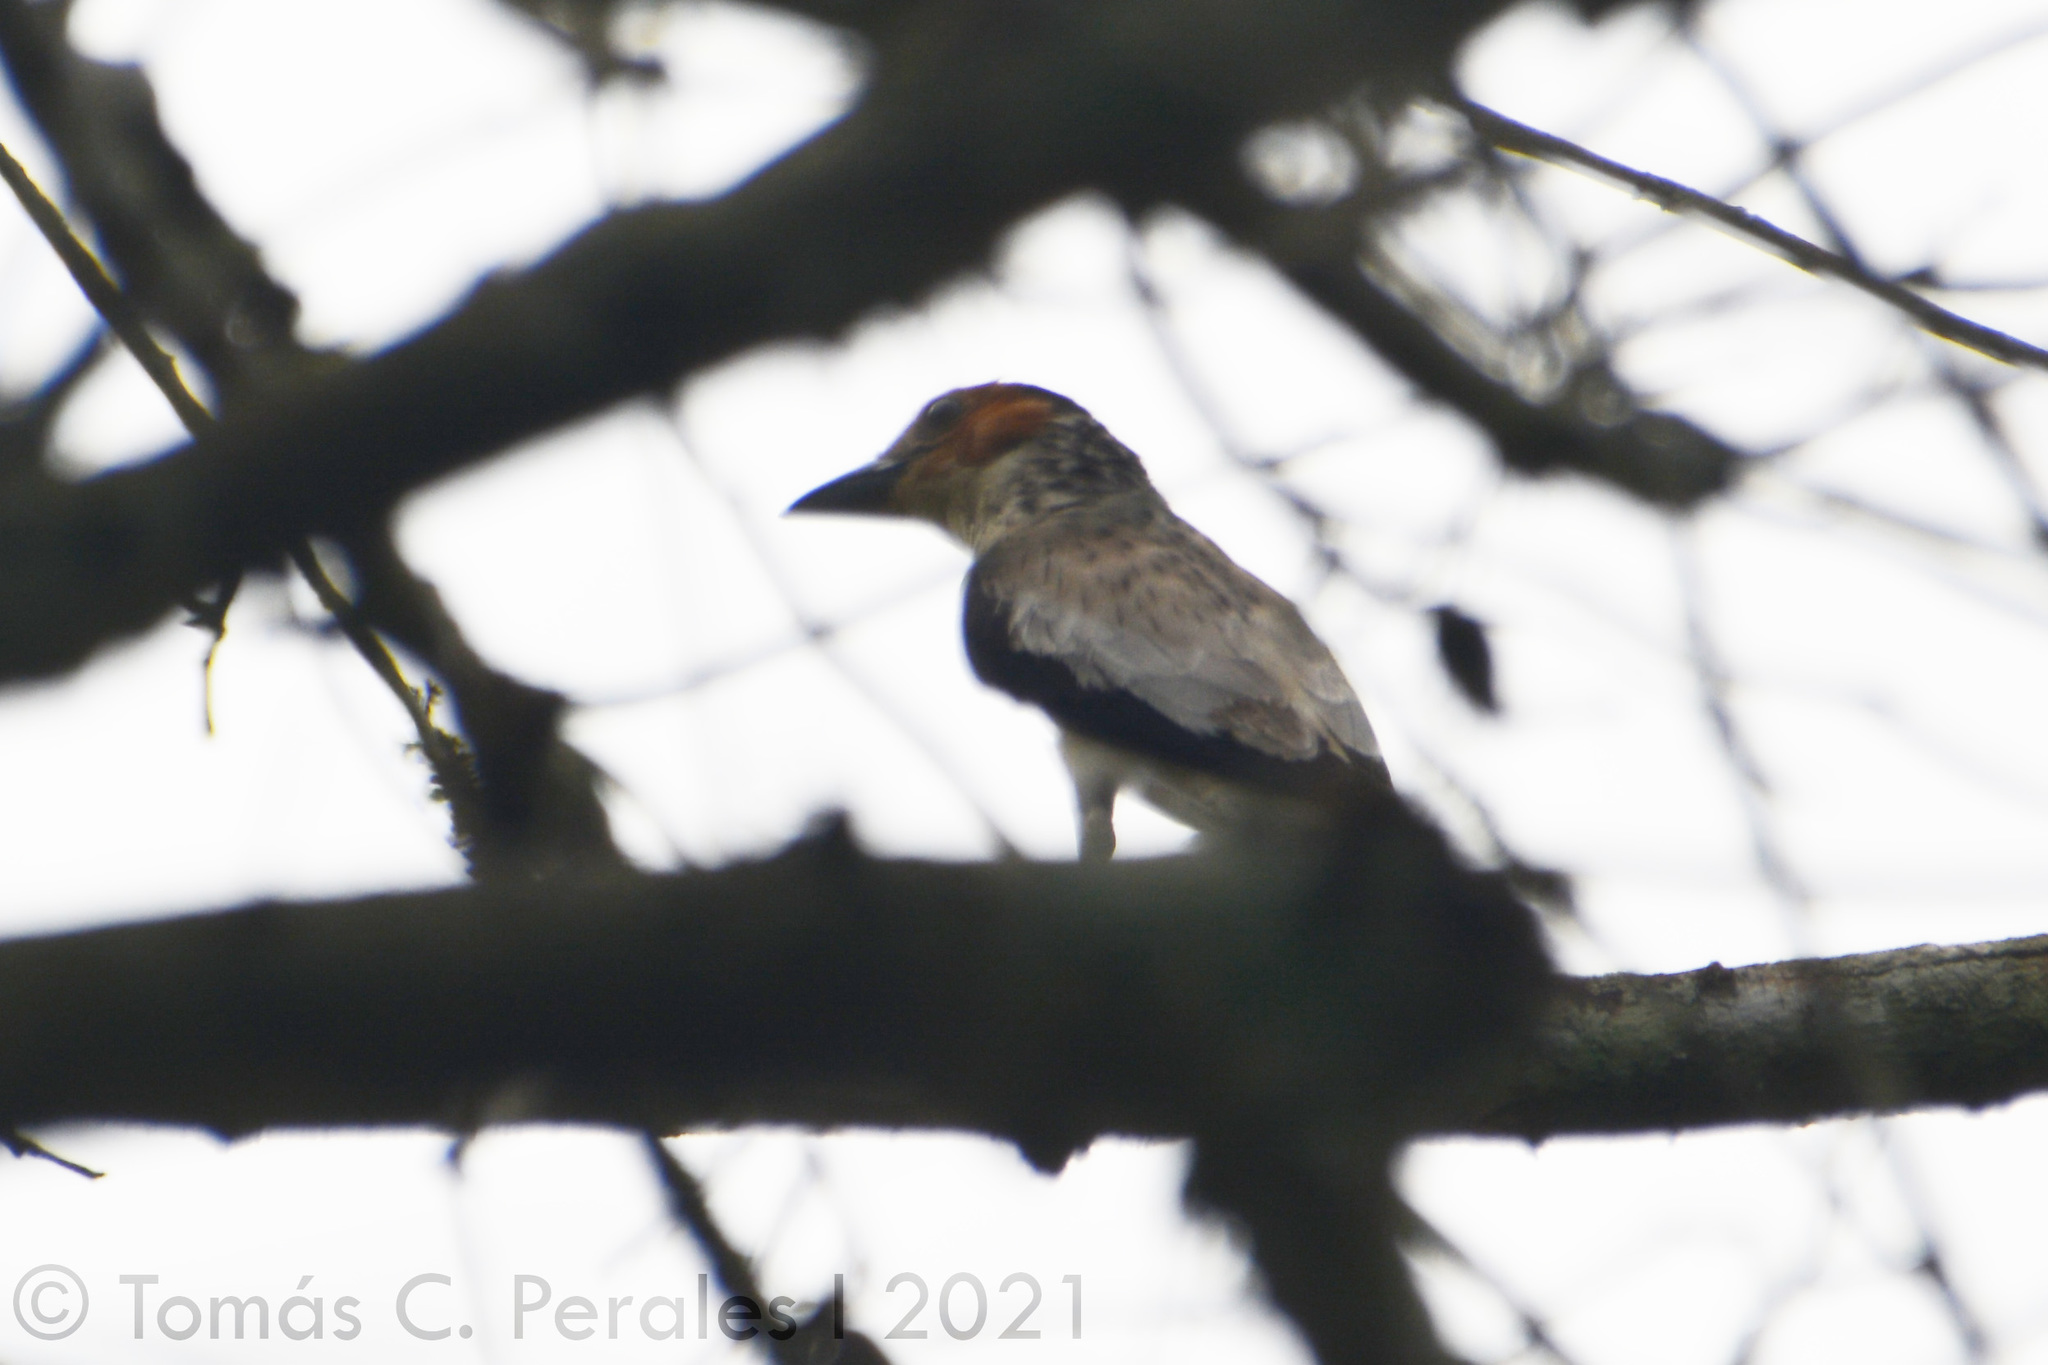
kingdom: Animalia
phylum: Chordata
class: Aves
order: Passeriformes
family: Cotingidae
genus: Tityra
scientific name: Tityra inquisitor
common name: Black-crowned tityra
